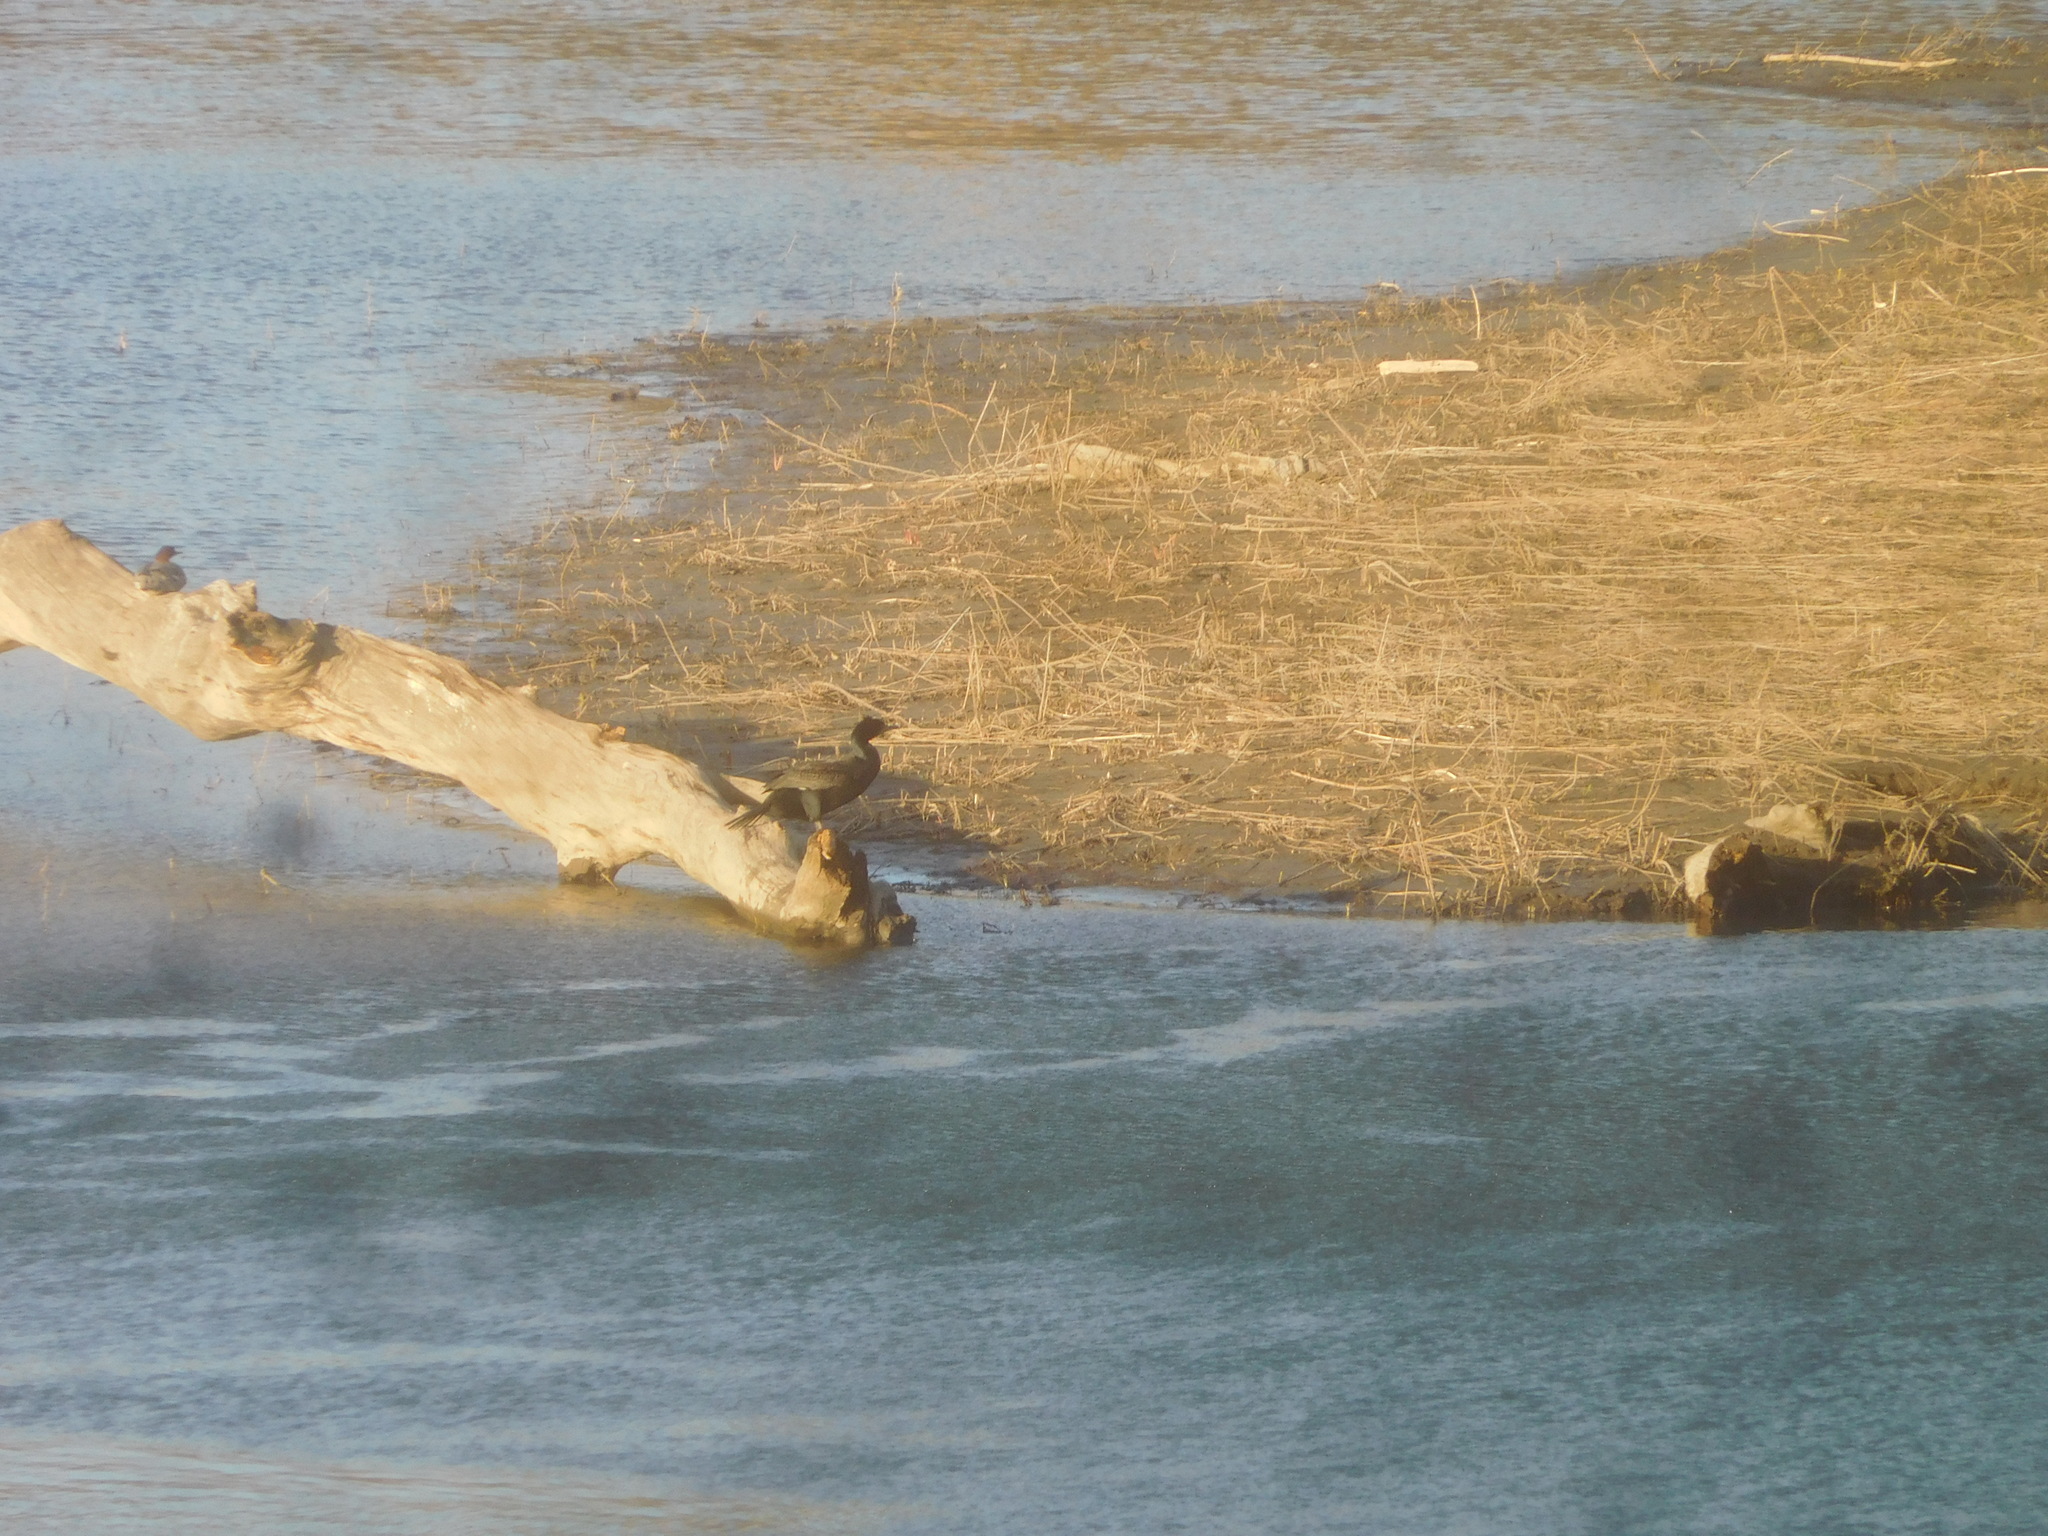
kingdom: Animalia
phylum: Chordata
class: Aves
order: Suliformes
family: Phalacrocoracidae
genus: Phalacrocorax
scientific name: Phalacrocorax auritus
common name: Double-crested cormorant
